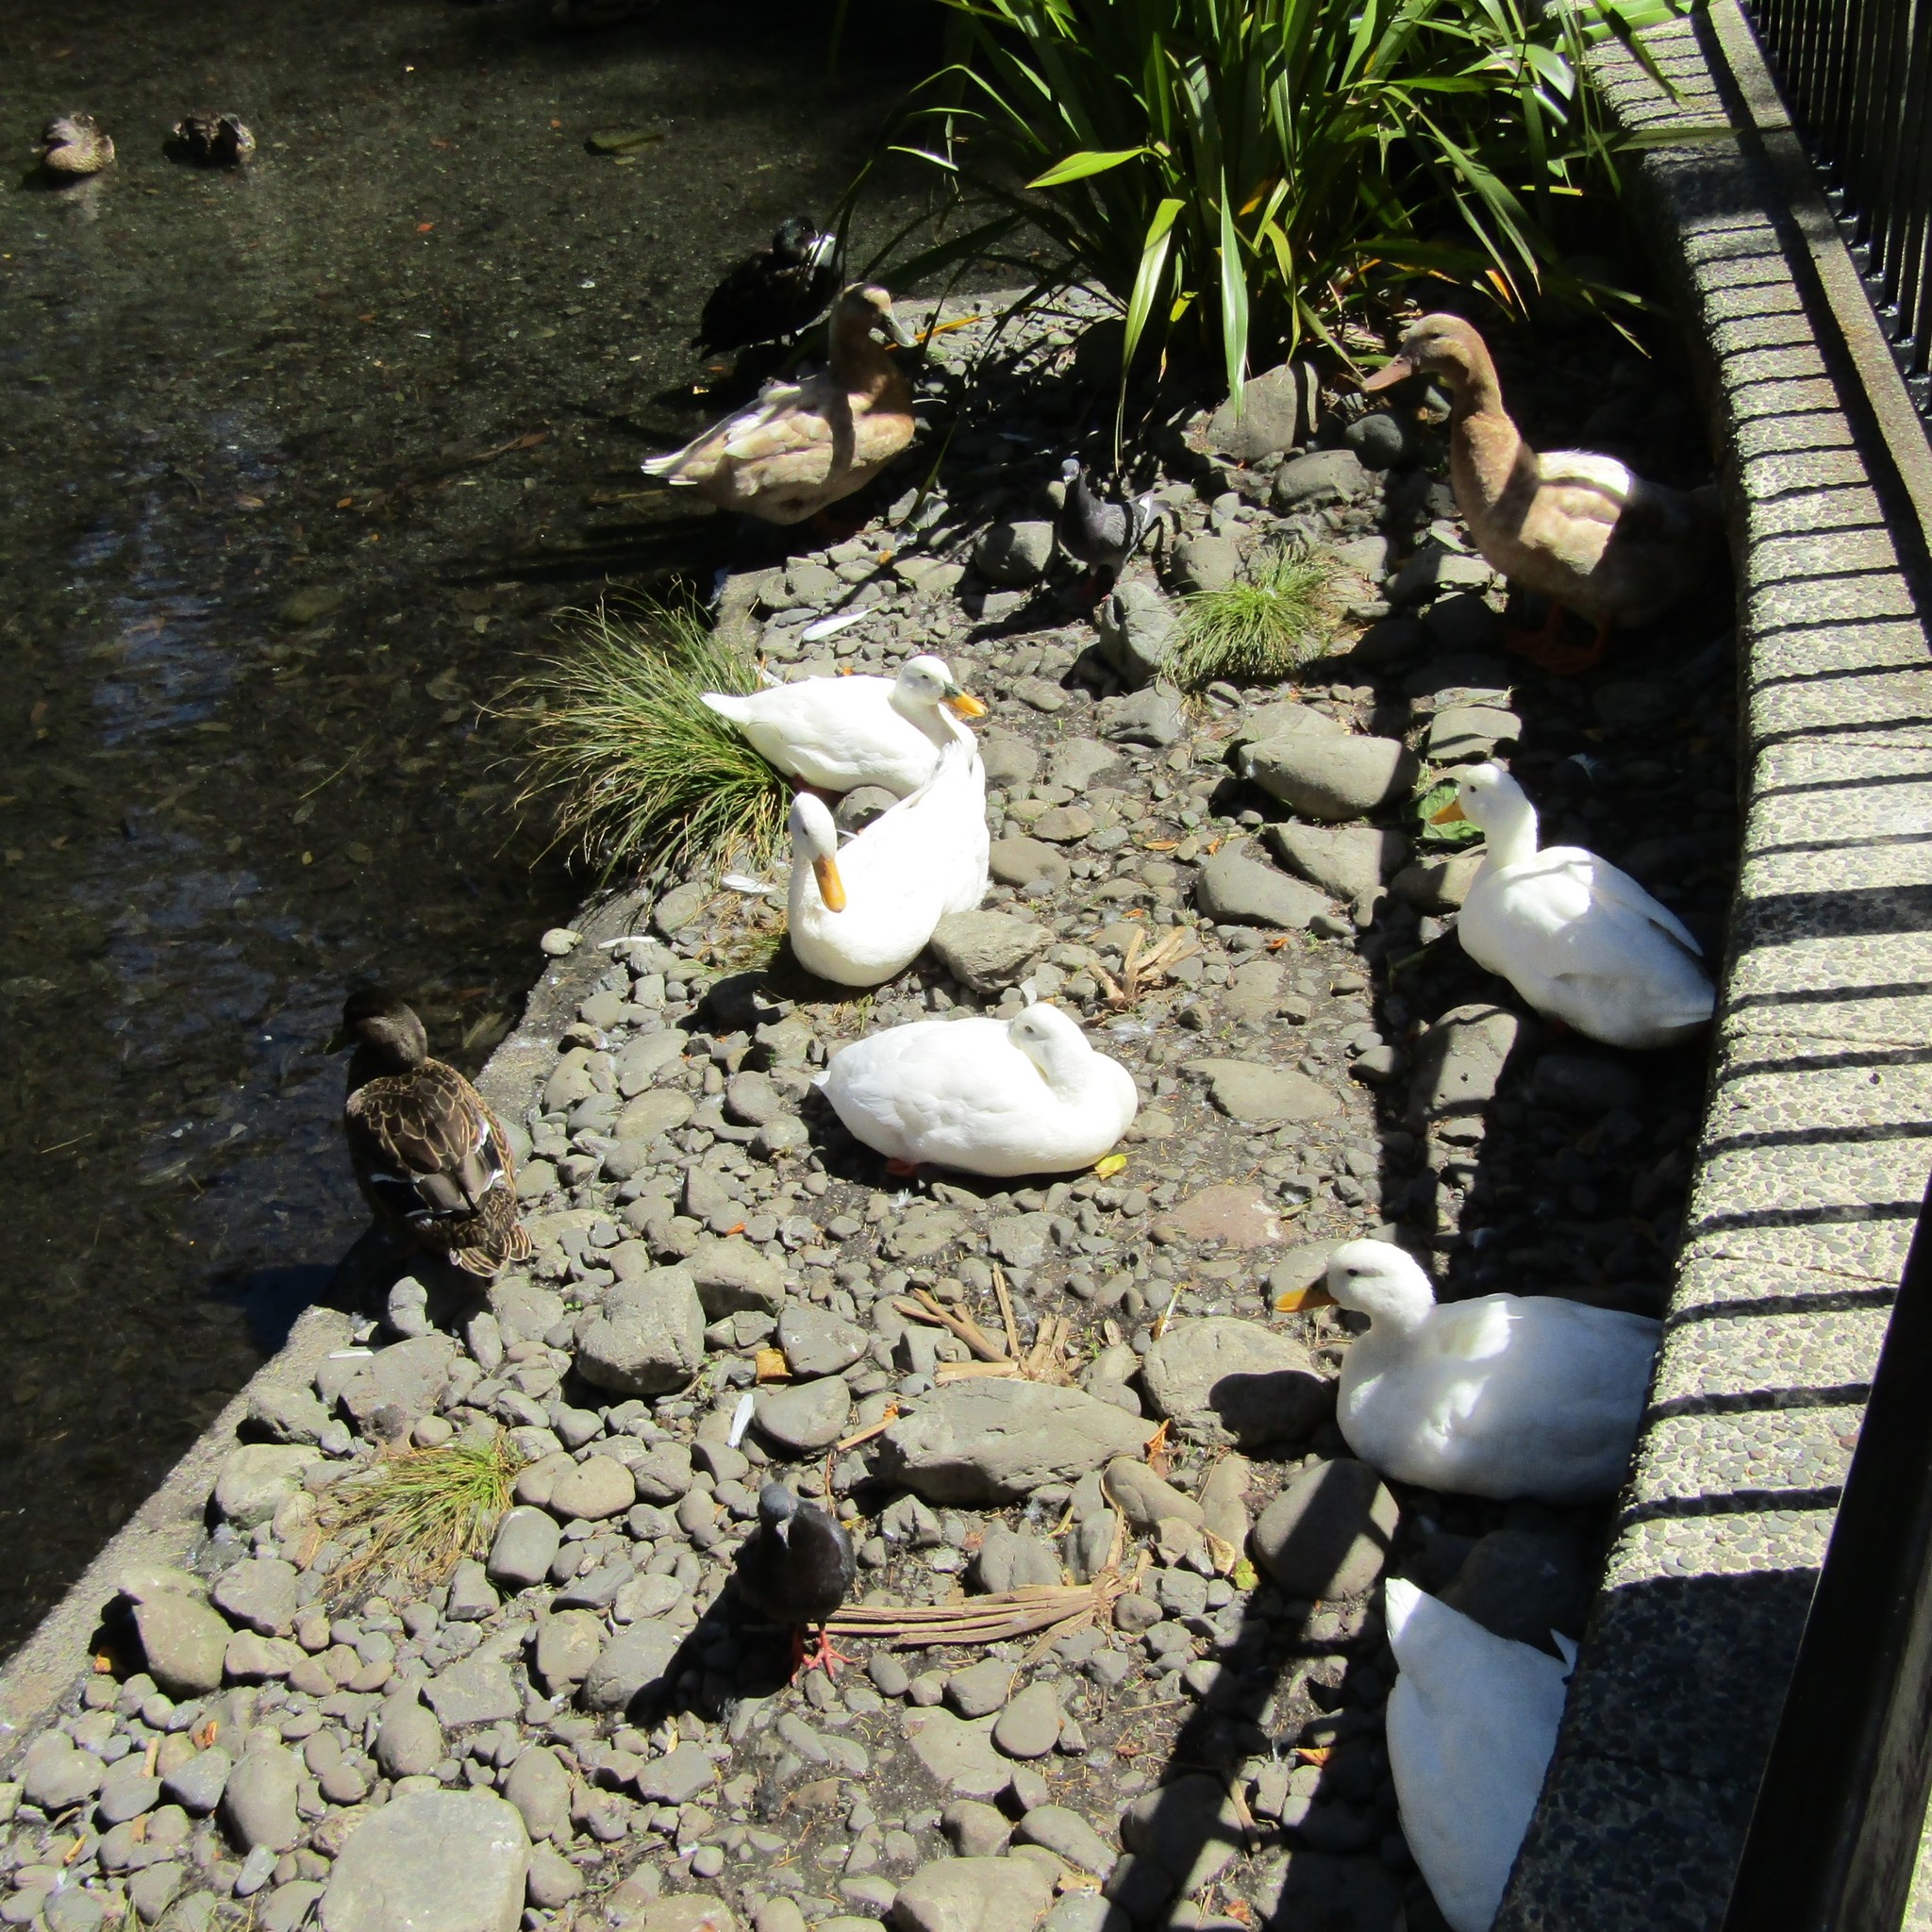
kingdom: Animalia
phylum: Chordata
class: Aves
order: Anseriformes
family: Anatidae
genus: Anas
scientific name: Anas platyrhynchos
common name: Mallard
